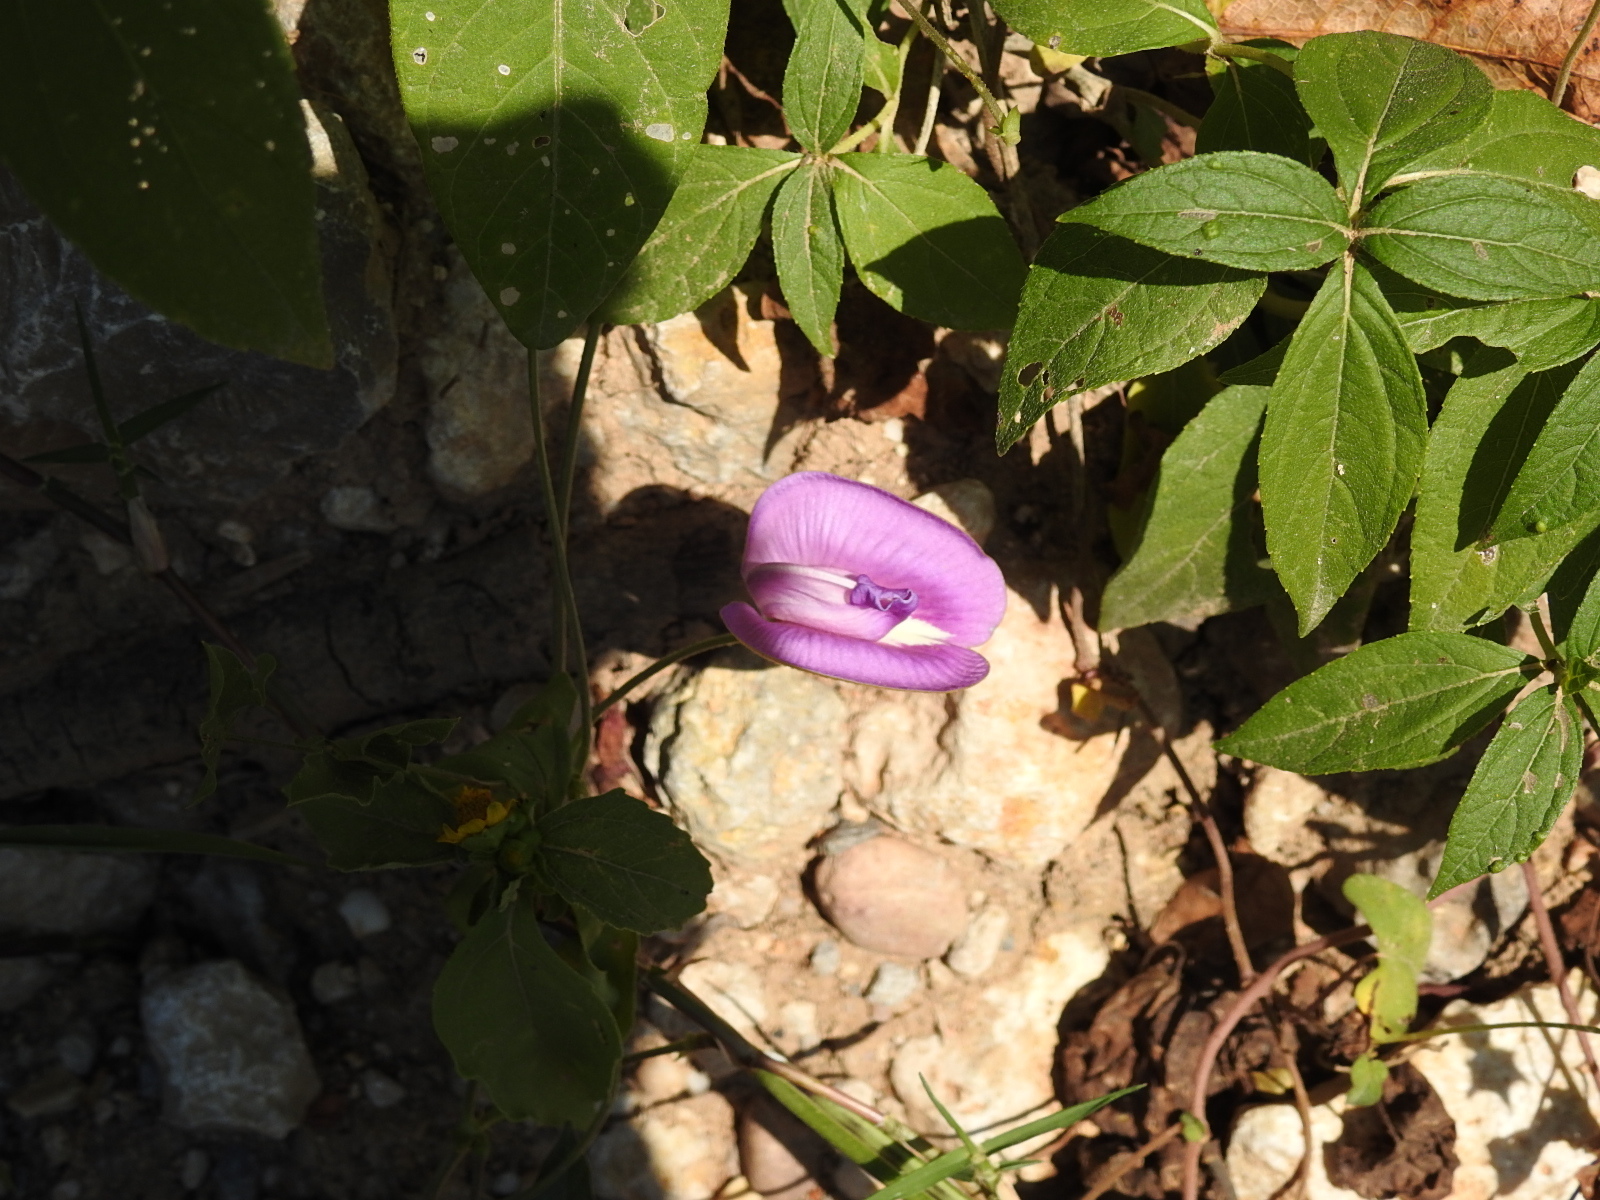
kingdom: Plantae
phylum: Tracheophyta
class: Magnoliopsida
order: Fabales
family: Fabaceae
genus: Centrosema
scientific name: Centrosema virginianum
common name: Butterfly-pea
